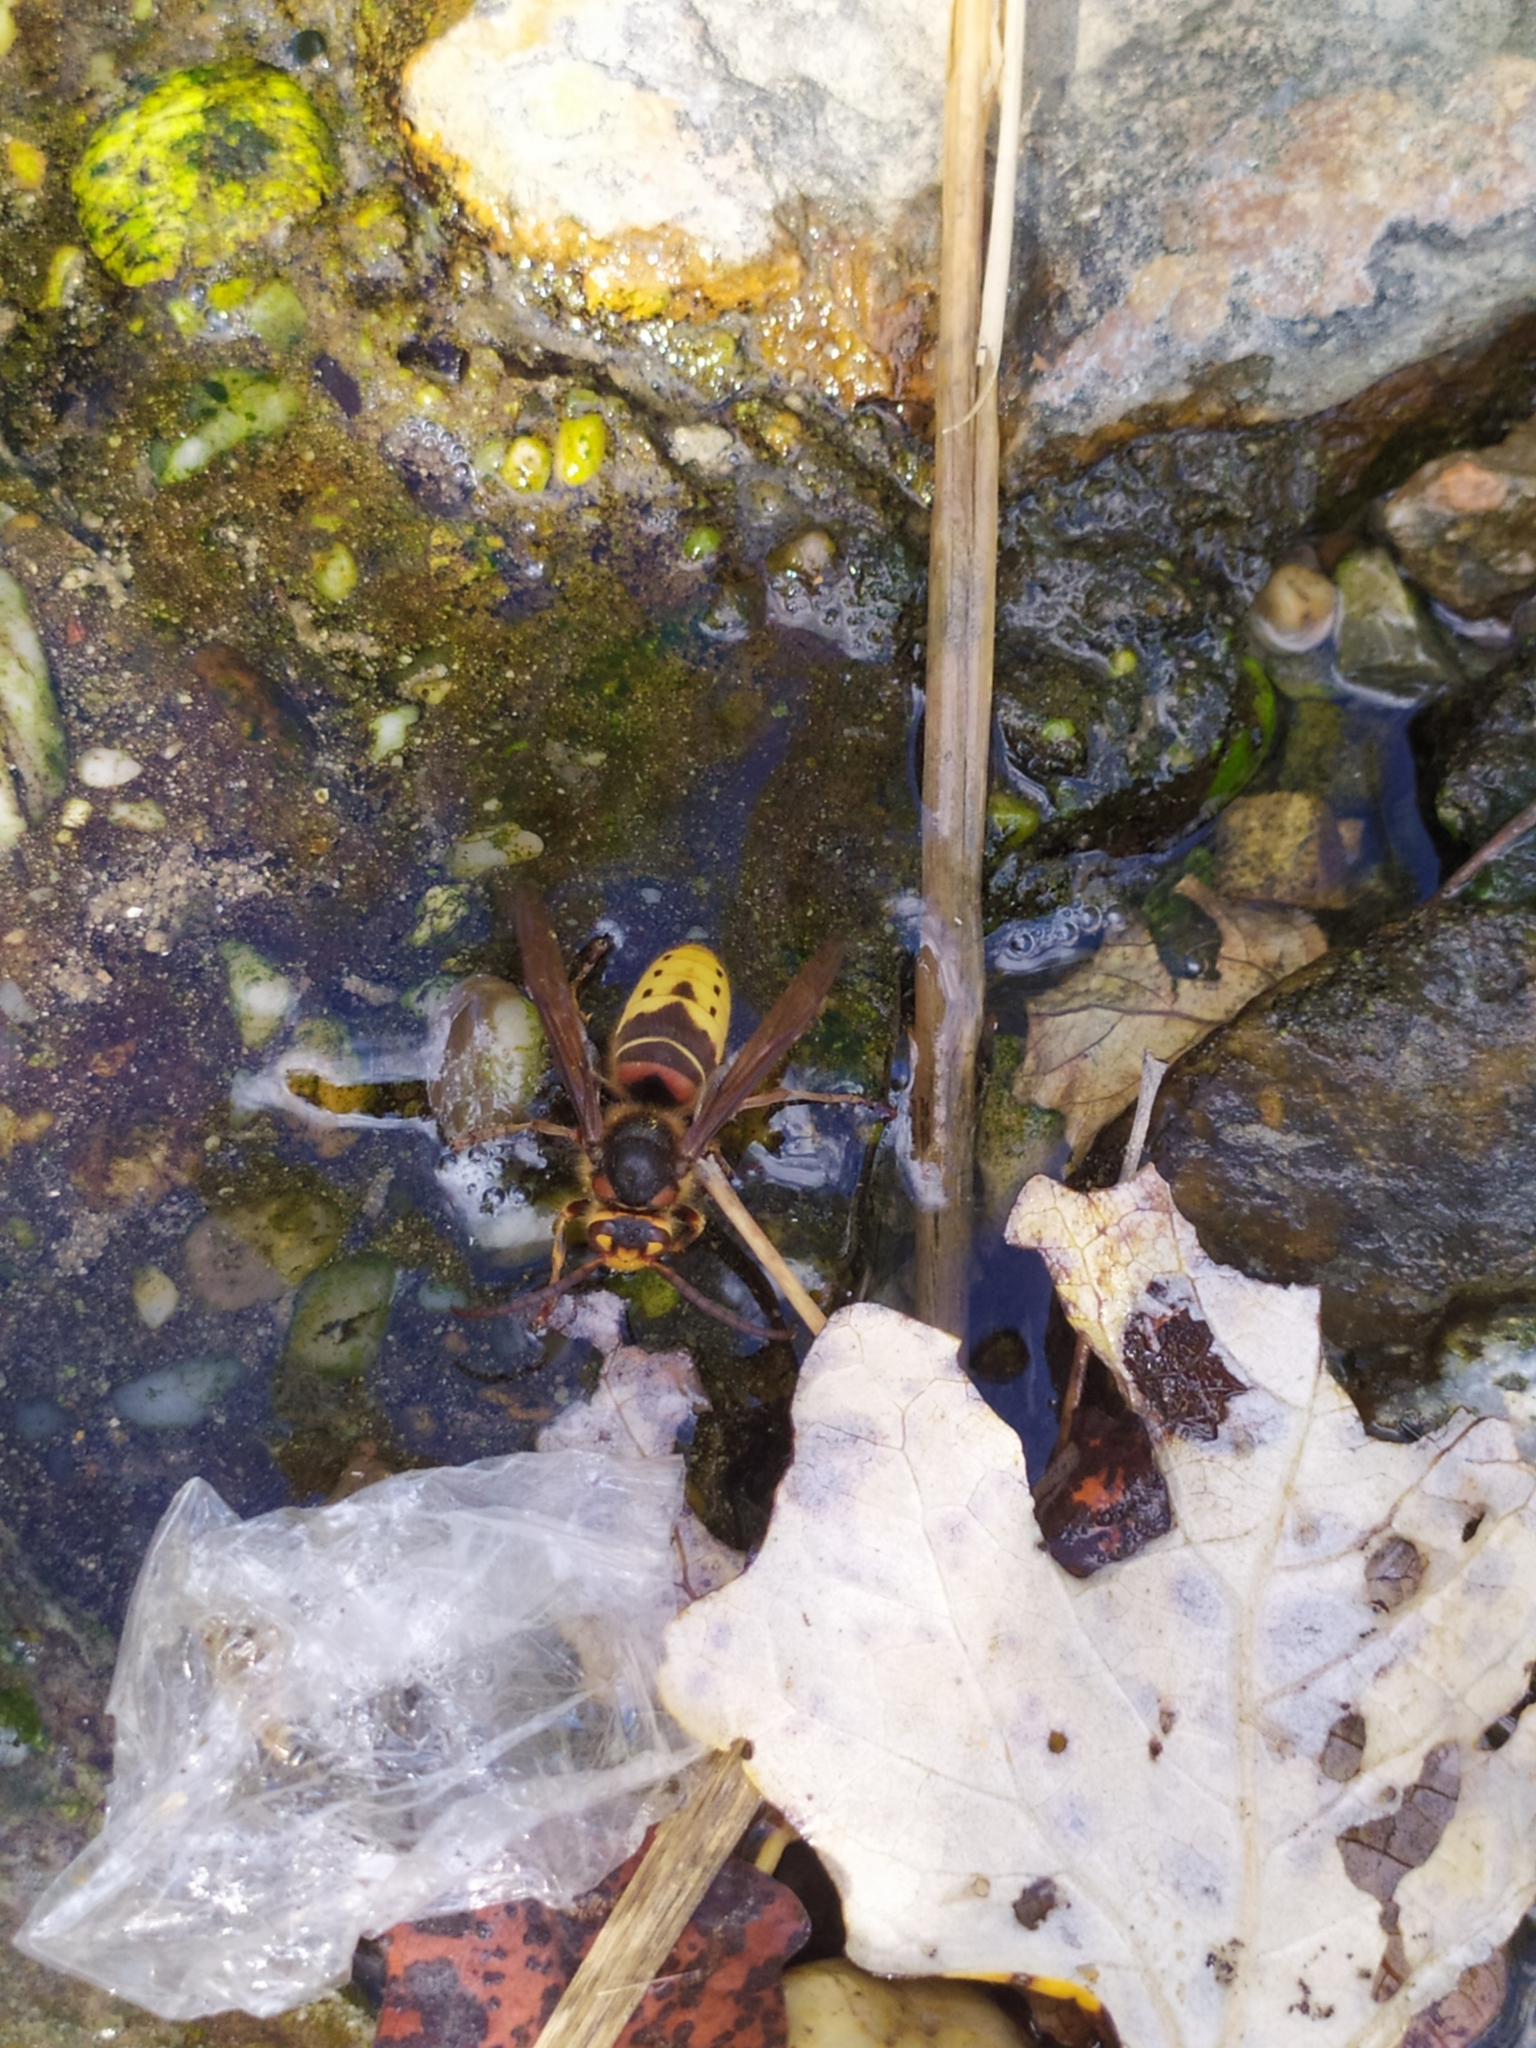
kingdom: Animalia
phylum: Arthropoda
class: Insecta
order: Hymenoptera
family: Vespidae
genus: Vespa
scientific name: Vespa crabro
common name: Hornet
